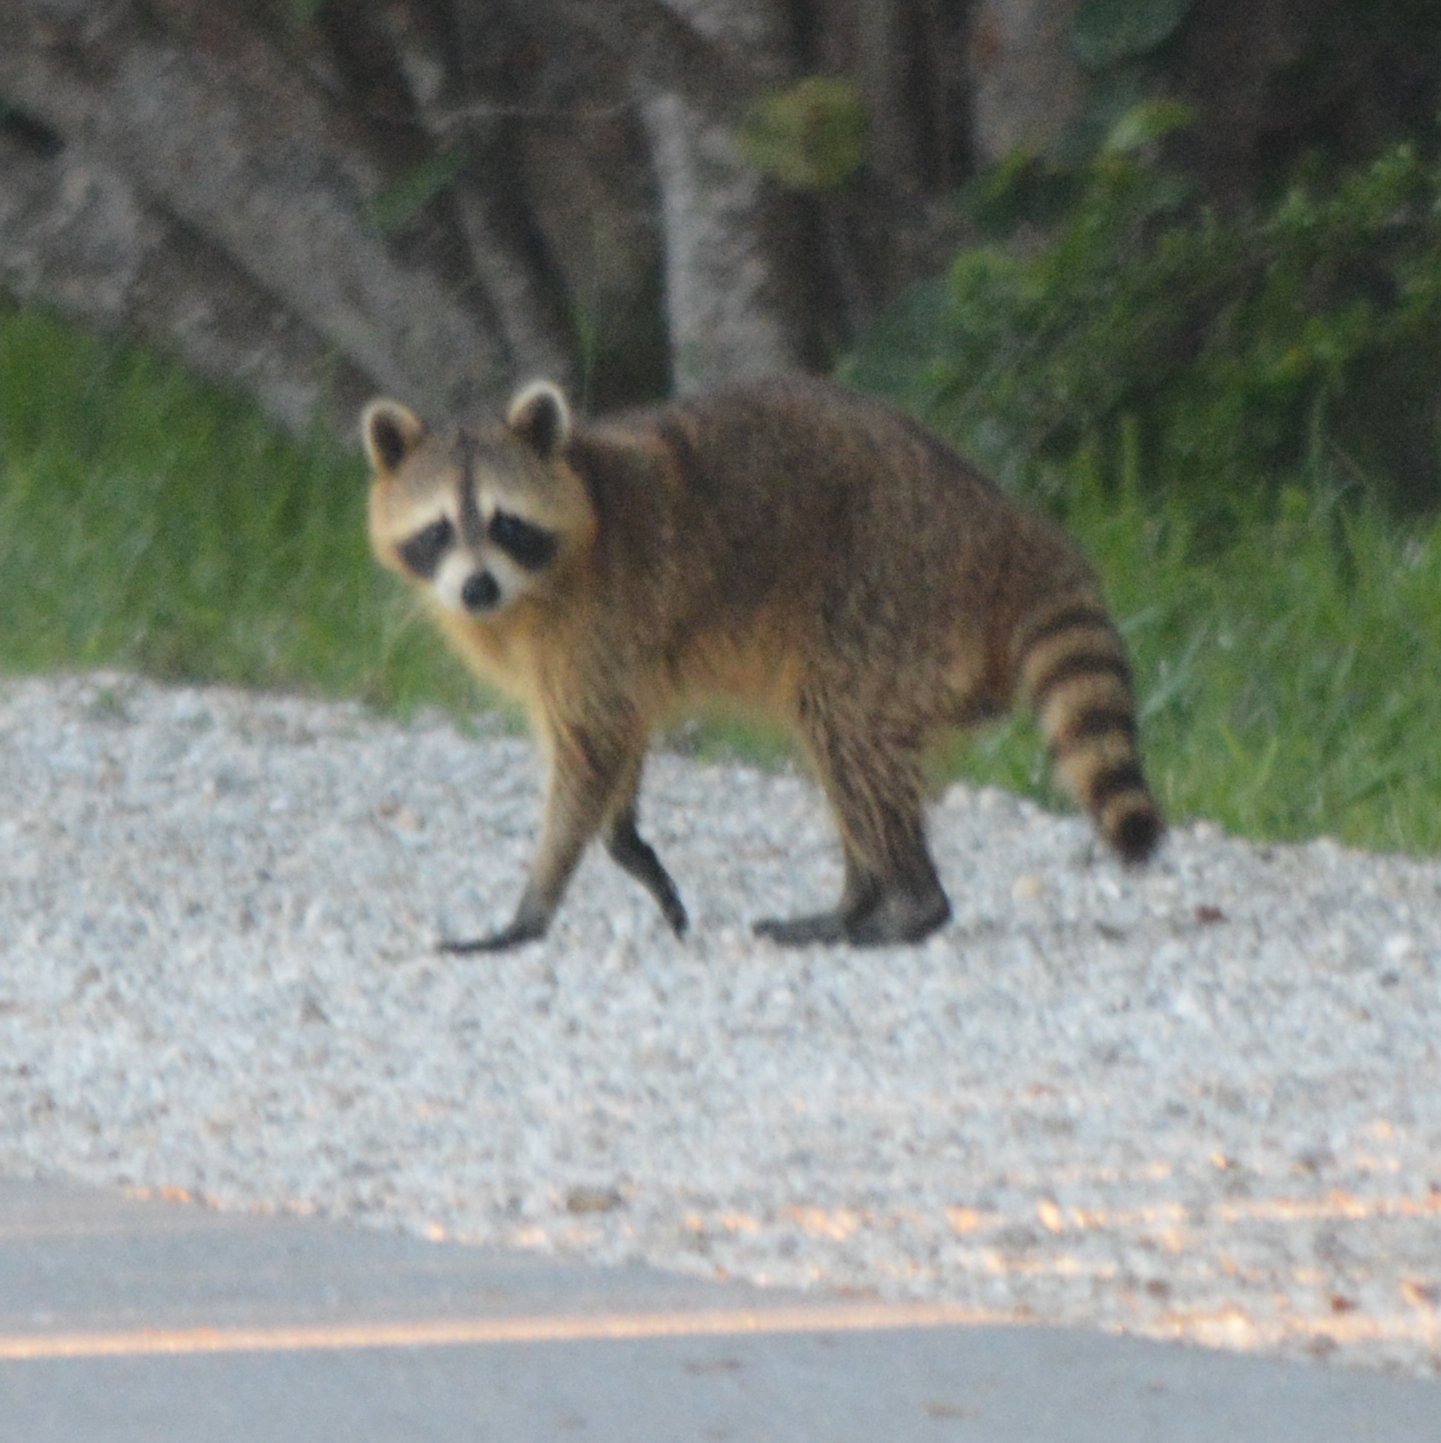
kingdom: Animalia
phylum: Chordata
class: Mammalia
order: Carnivora
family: Procyonidae
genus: Procyon
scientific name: Procyon lotor
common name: Raccoon
